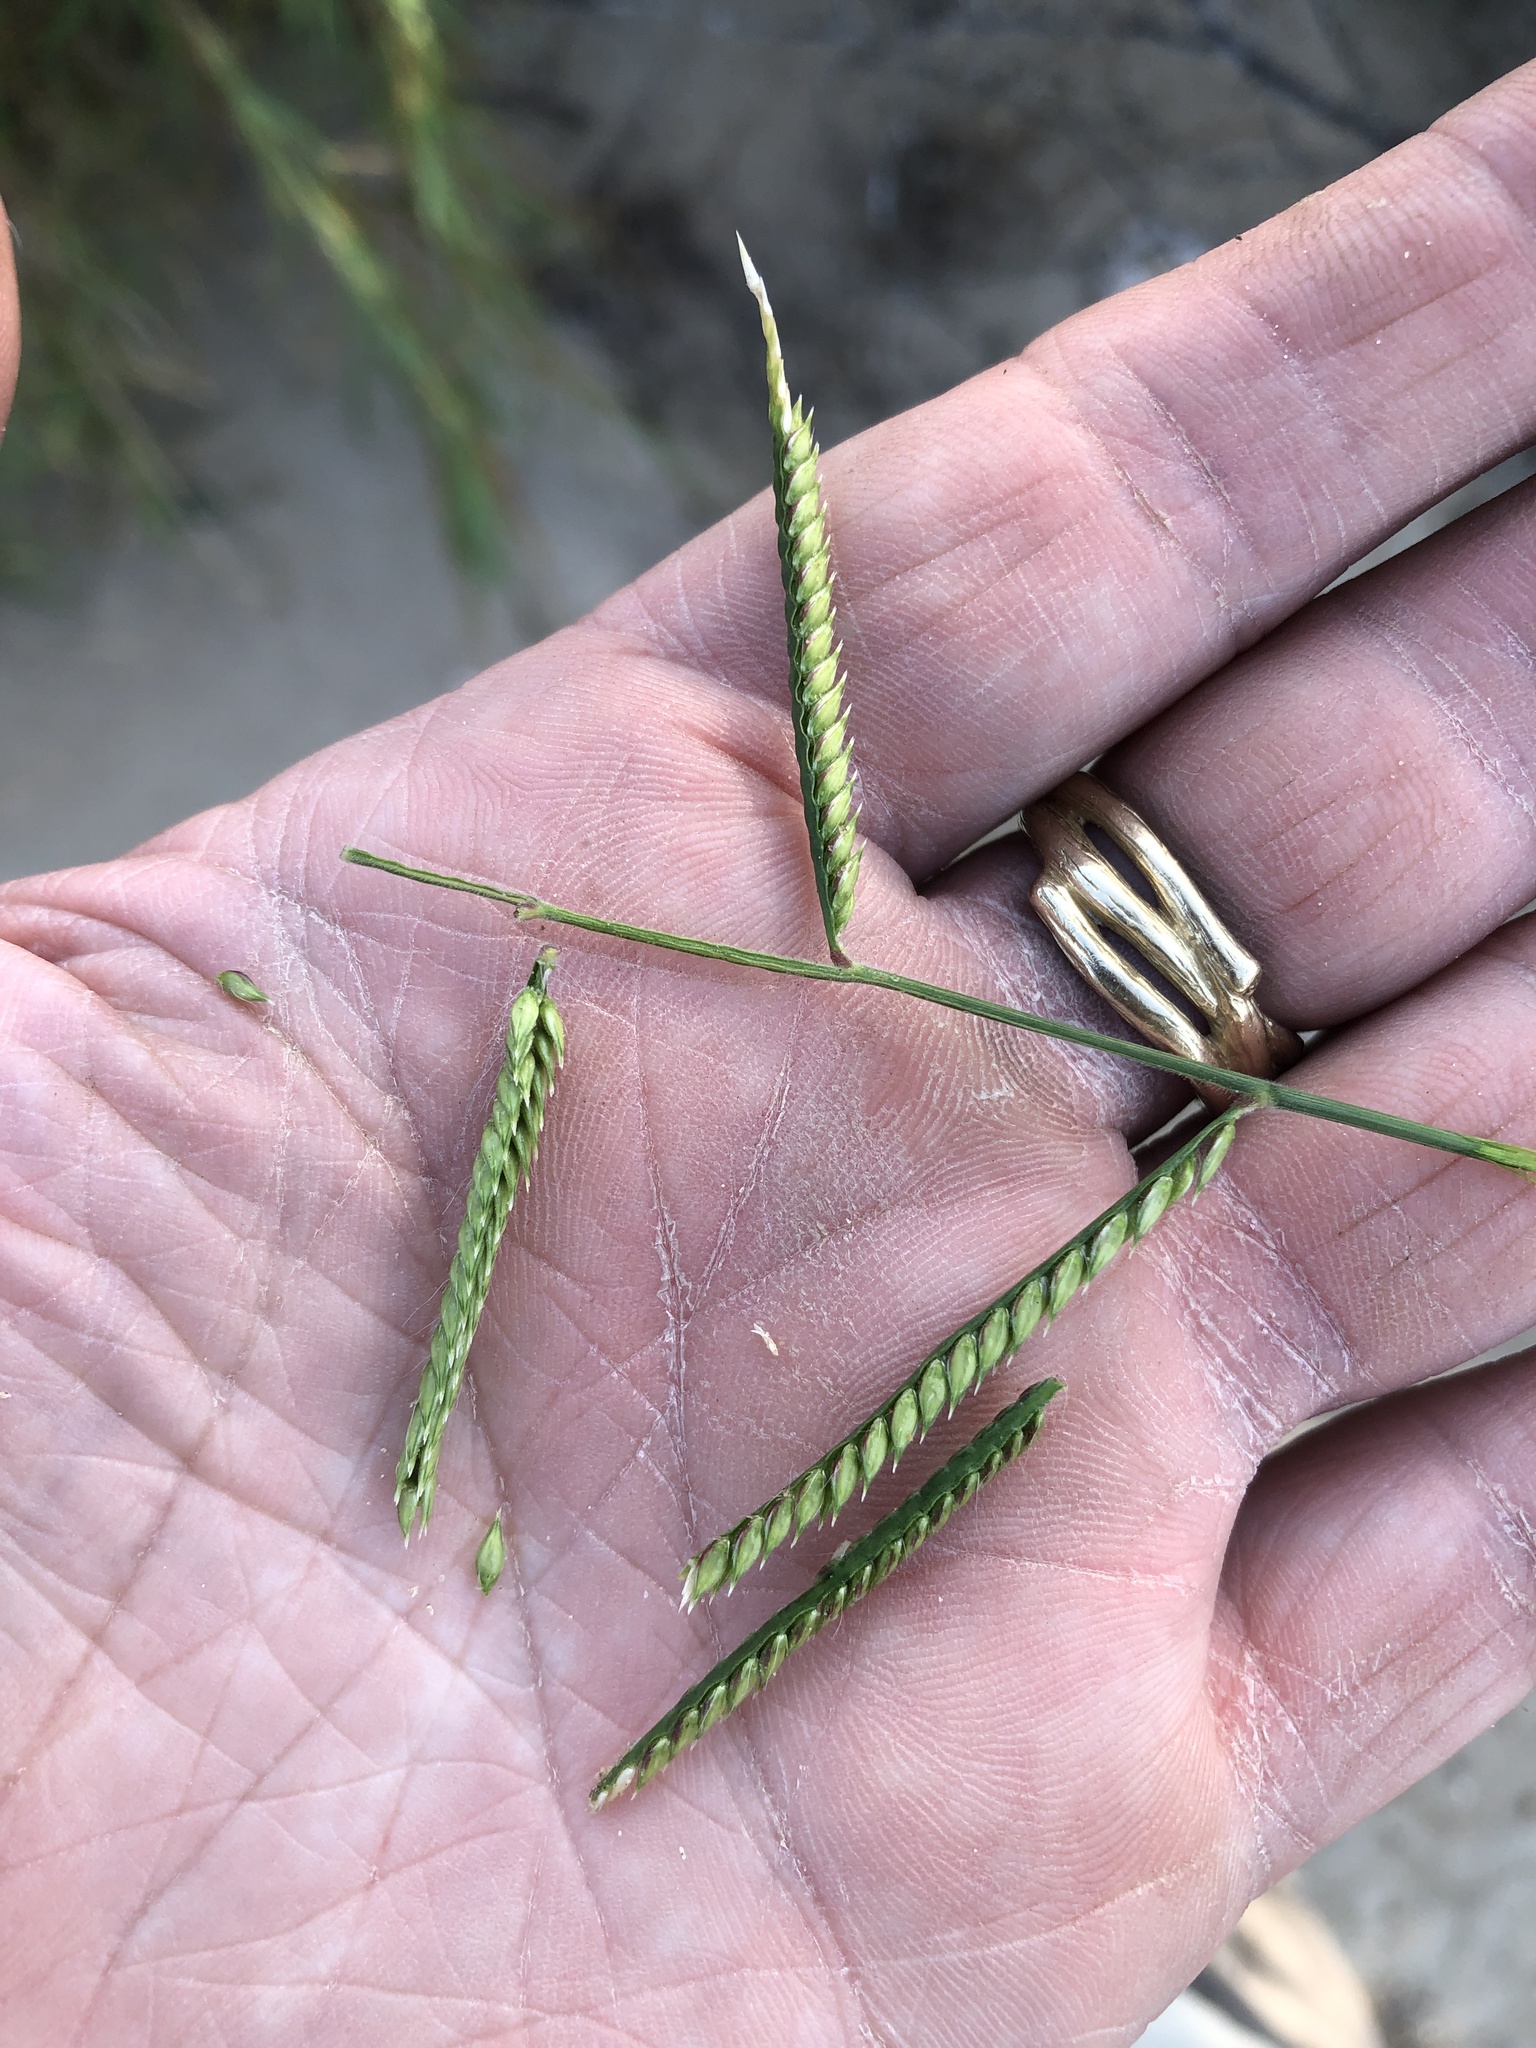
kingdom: Plantae
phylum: Tracheophyta
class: Liliopsida
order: Poales
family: Poaceae
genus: Urochloa
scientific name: Urochloa trichopus
